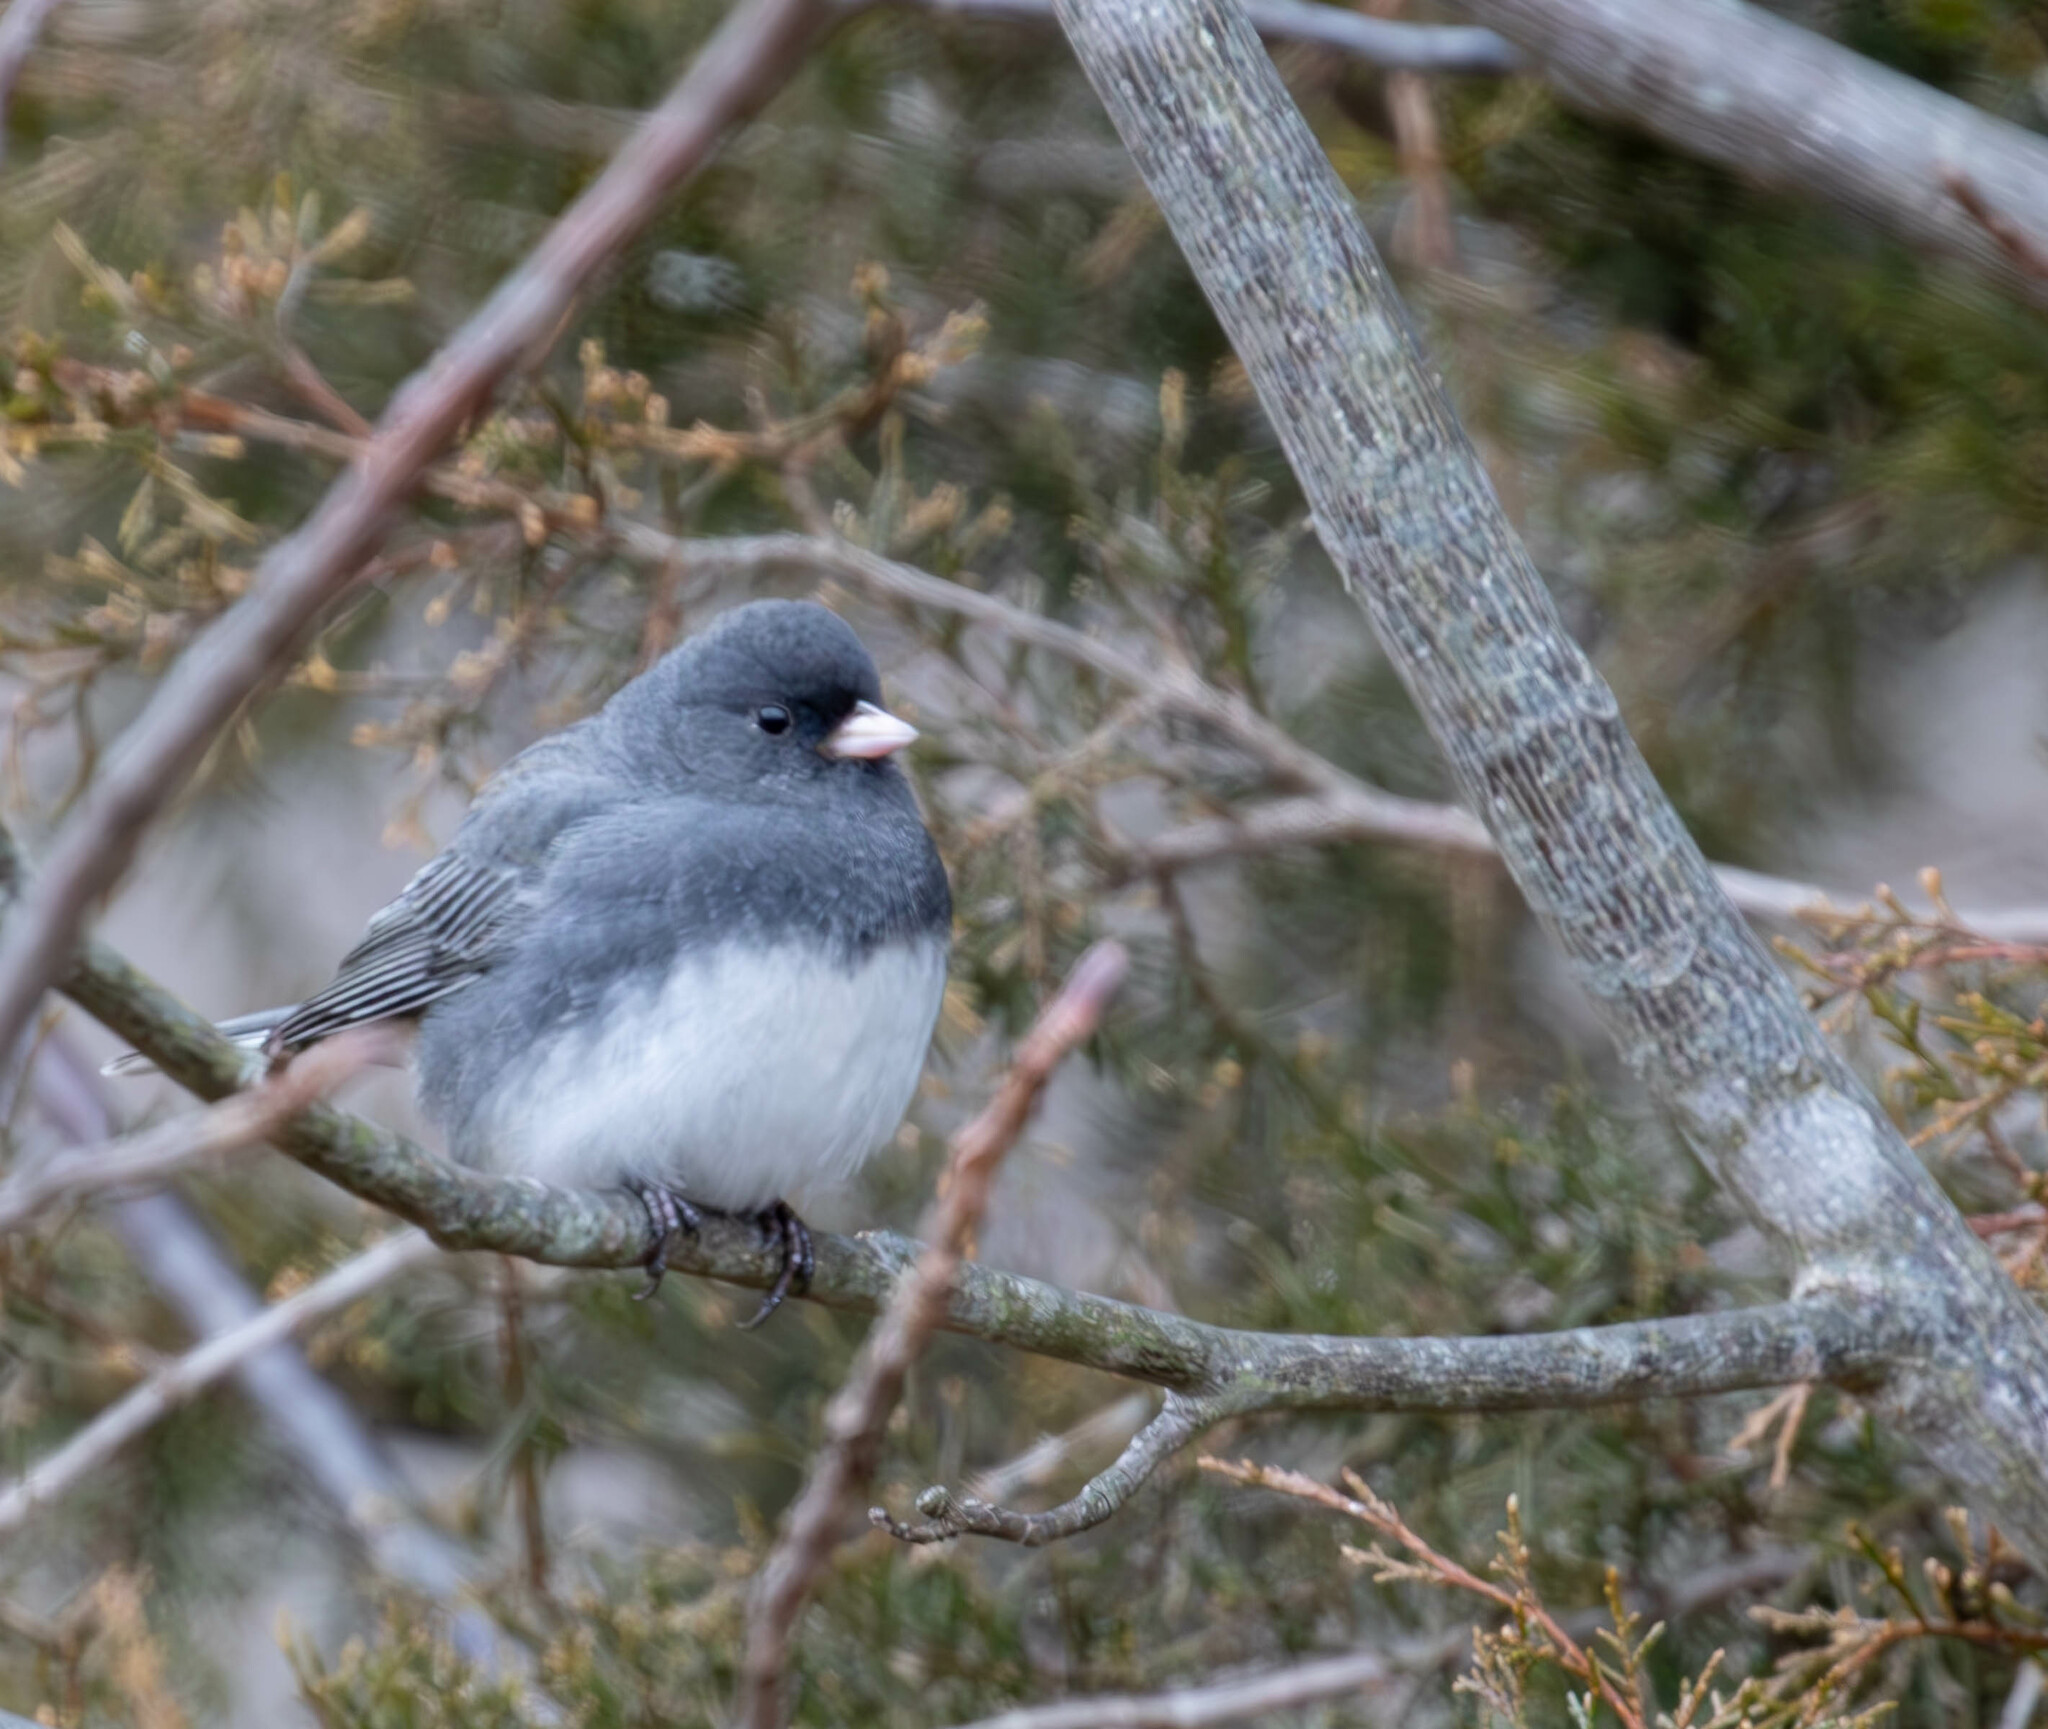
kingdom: Animalia
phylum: Chordata
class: Aves
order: Passeriformes
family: Passerellidae
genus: Junco
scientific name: Junco hyemalis
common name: Dark-eyed junco
